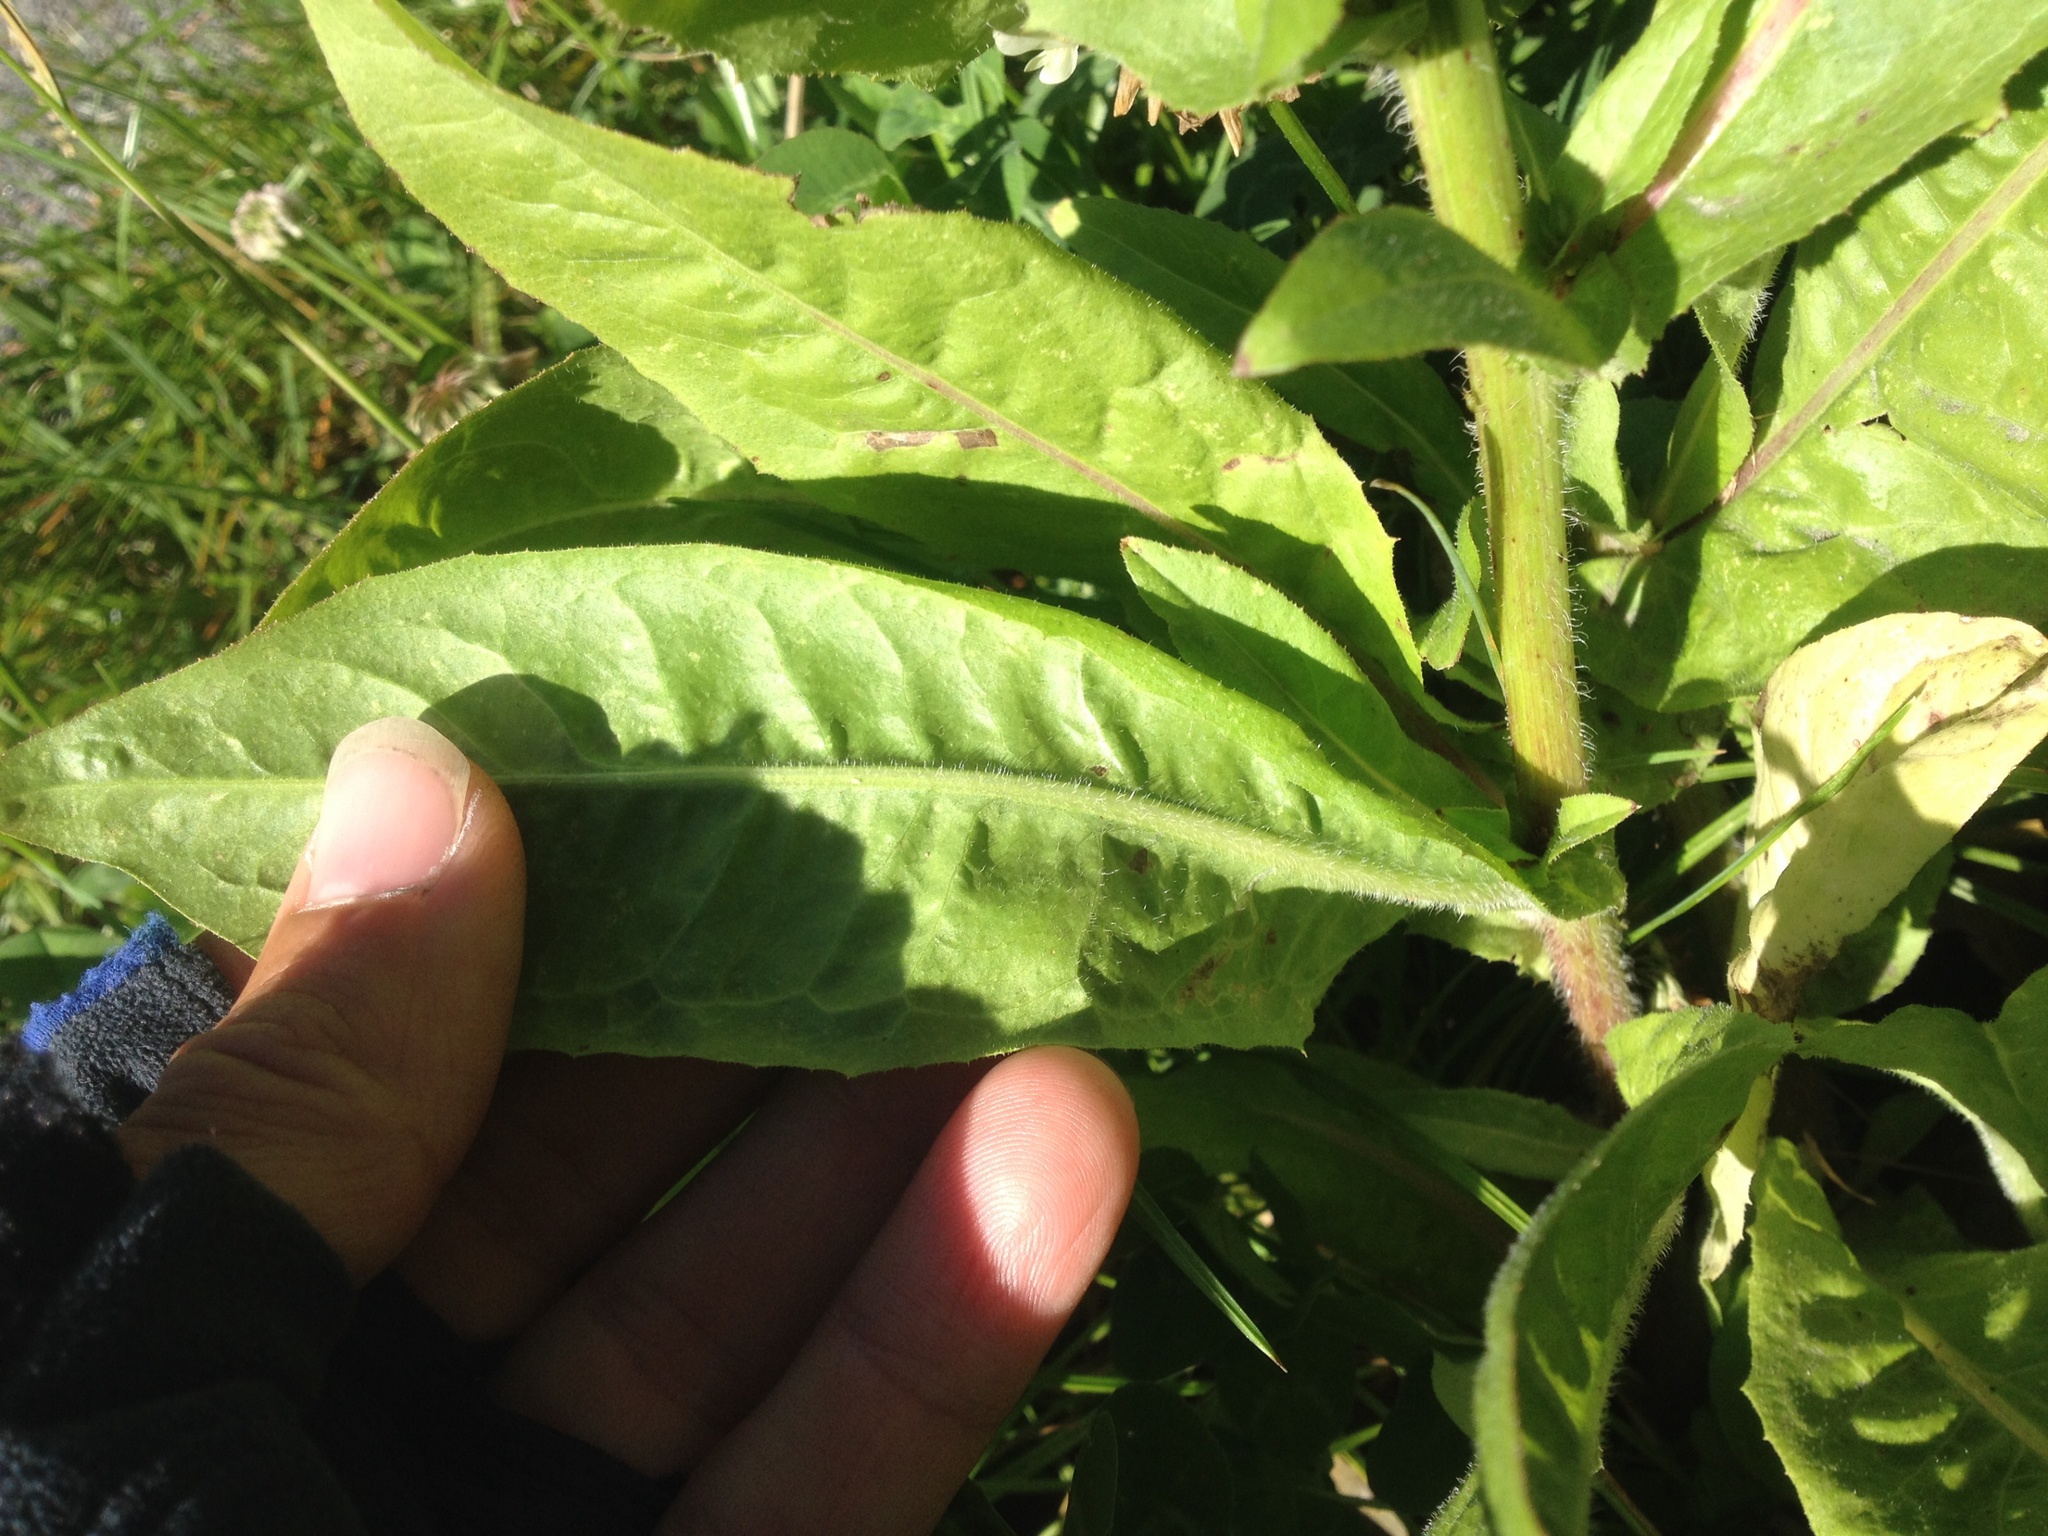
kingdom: Plantae
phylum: Tracheophyta
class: Magnoliopsida
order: Asterales
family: Asteraceae
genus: Cichorium
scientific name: Cichorium intybus
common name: Chicory
